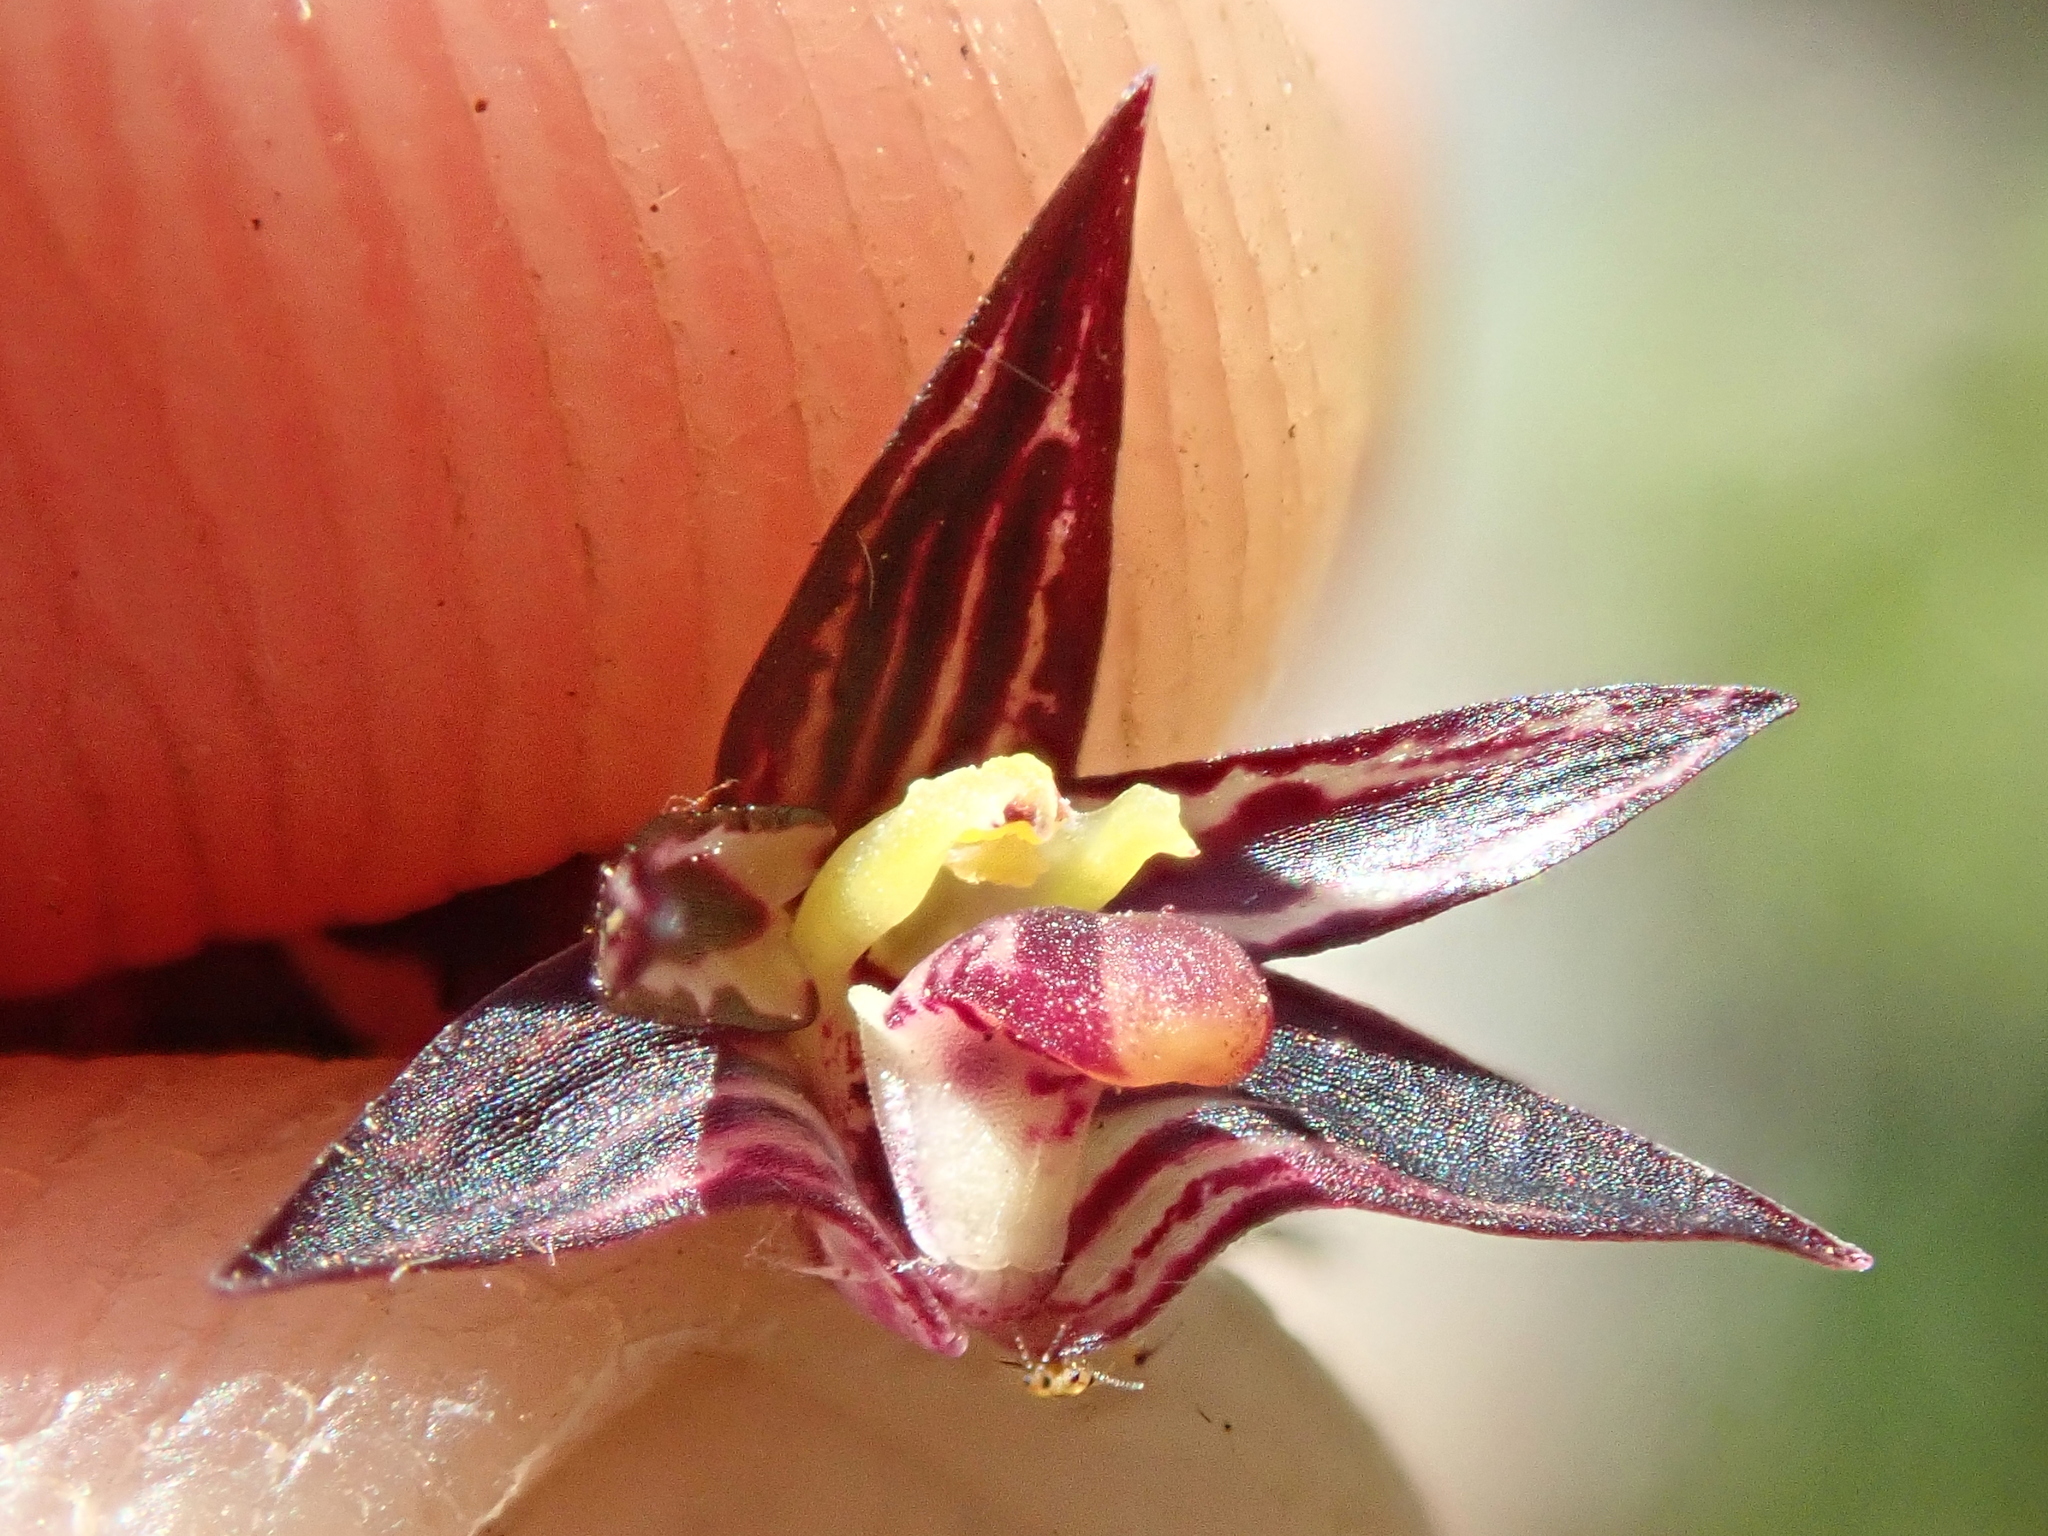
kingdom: Plantae
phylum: Tracheophyta
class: Liliopsida
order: Asparagales
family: Orchidaceae
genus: Bulbophyllum
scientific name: Bulbophyllum insectiferum
